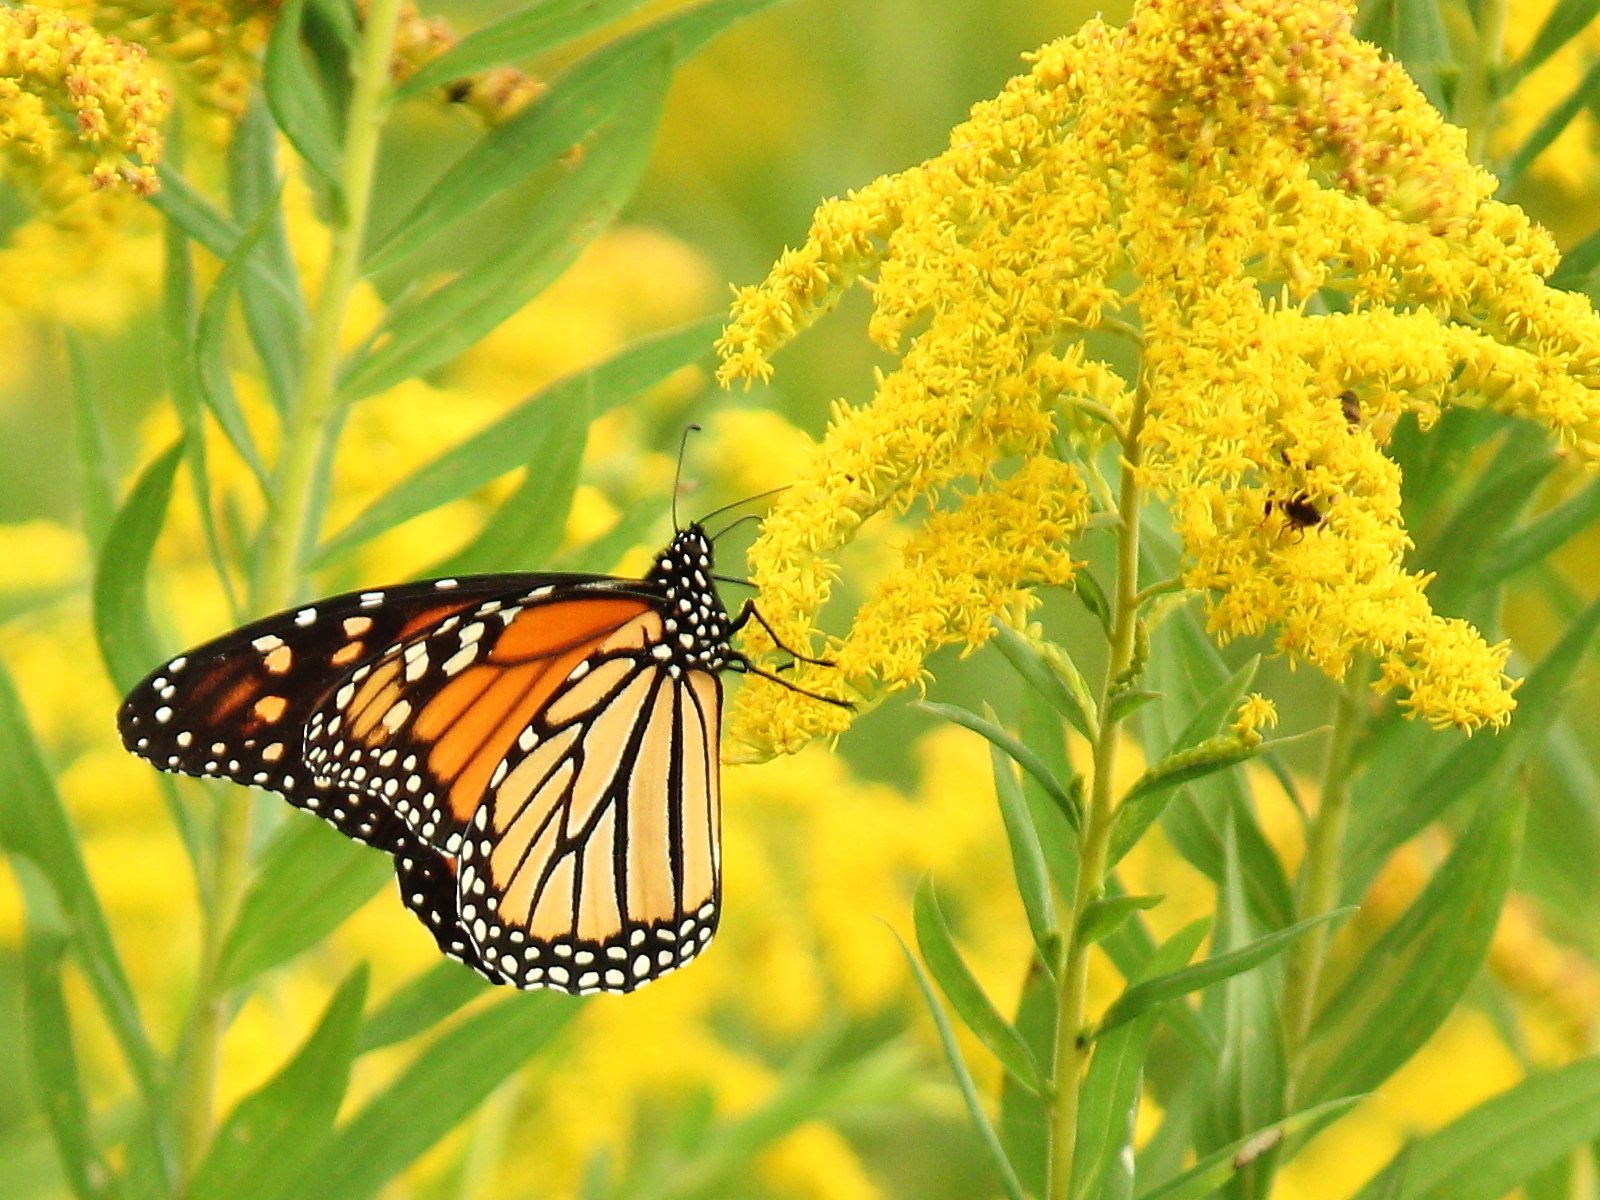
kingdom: Animalia
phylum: Arthropoda
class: Insecta
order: Lepidoptera
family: Nymphalidae
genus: Danaus
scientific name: Danaus plexippus
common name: Monarch
